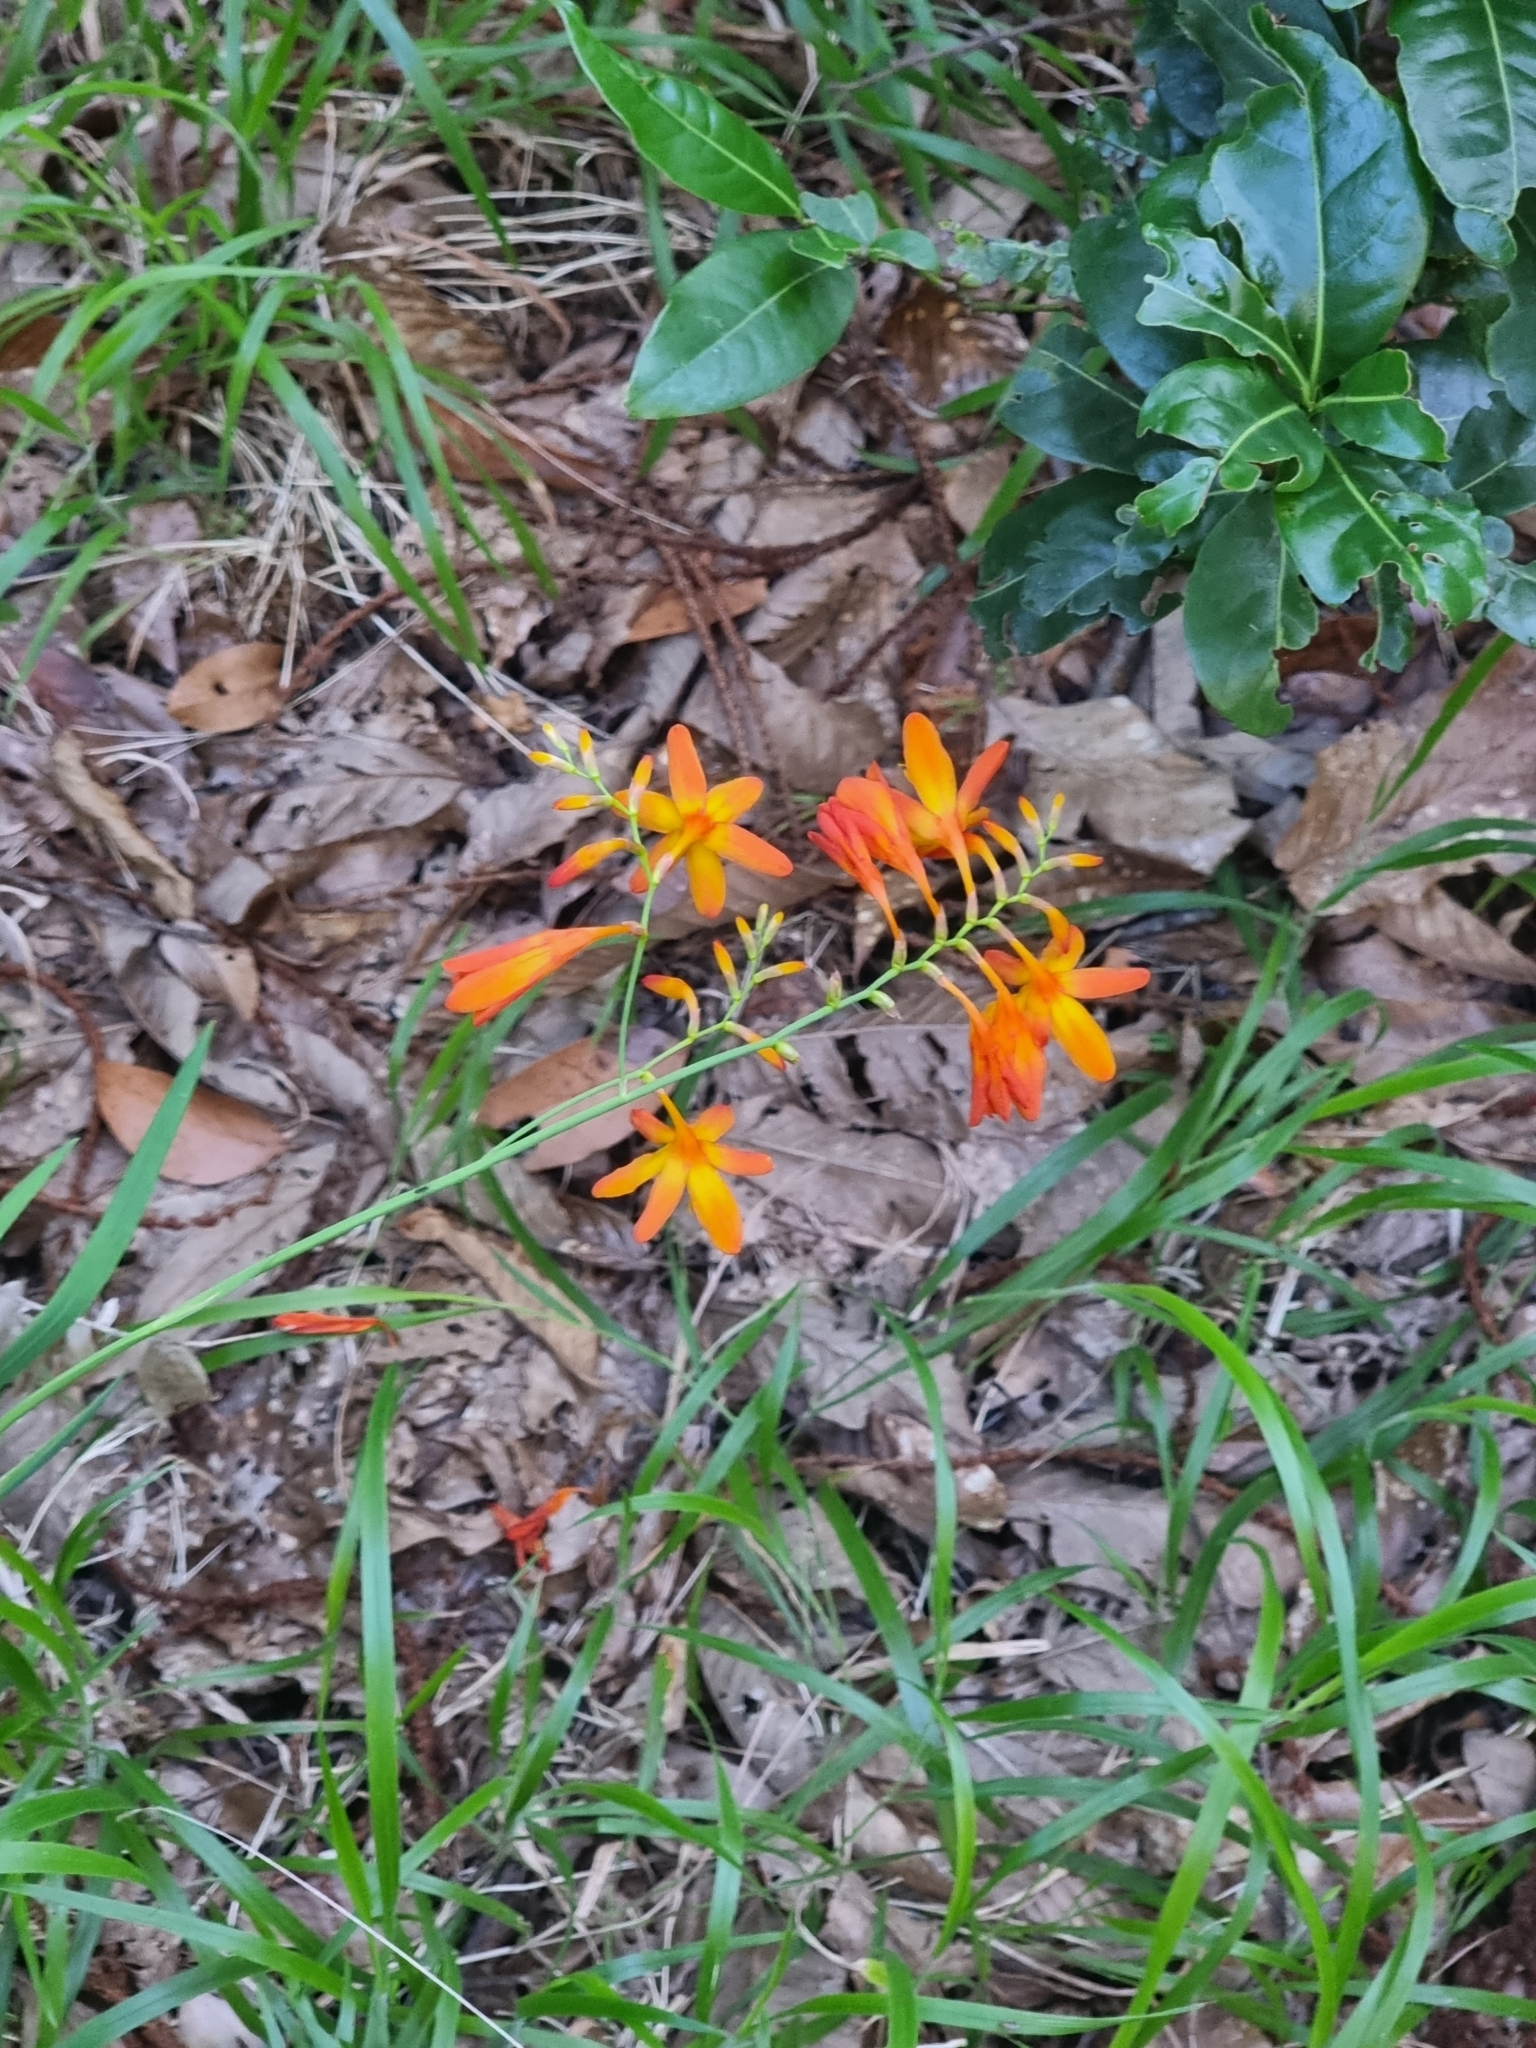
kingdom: Plantae
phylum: Tracheophyta
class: Liliopsida
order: Asparagales
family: Iridaceae
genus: Crocosmia
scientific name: Crocosmia crocosmiiflora
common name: Montbretia
